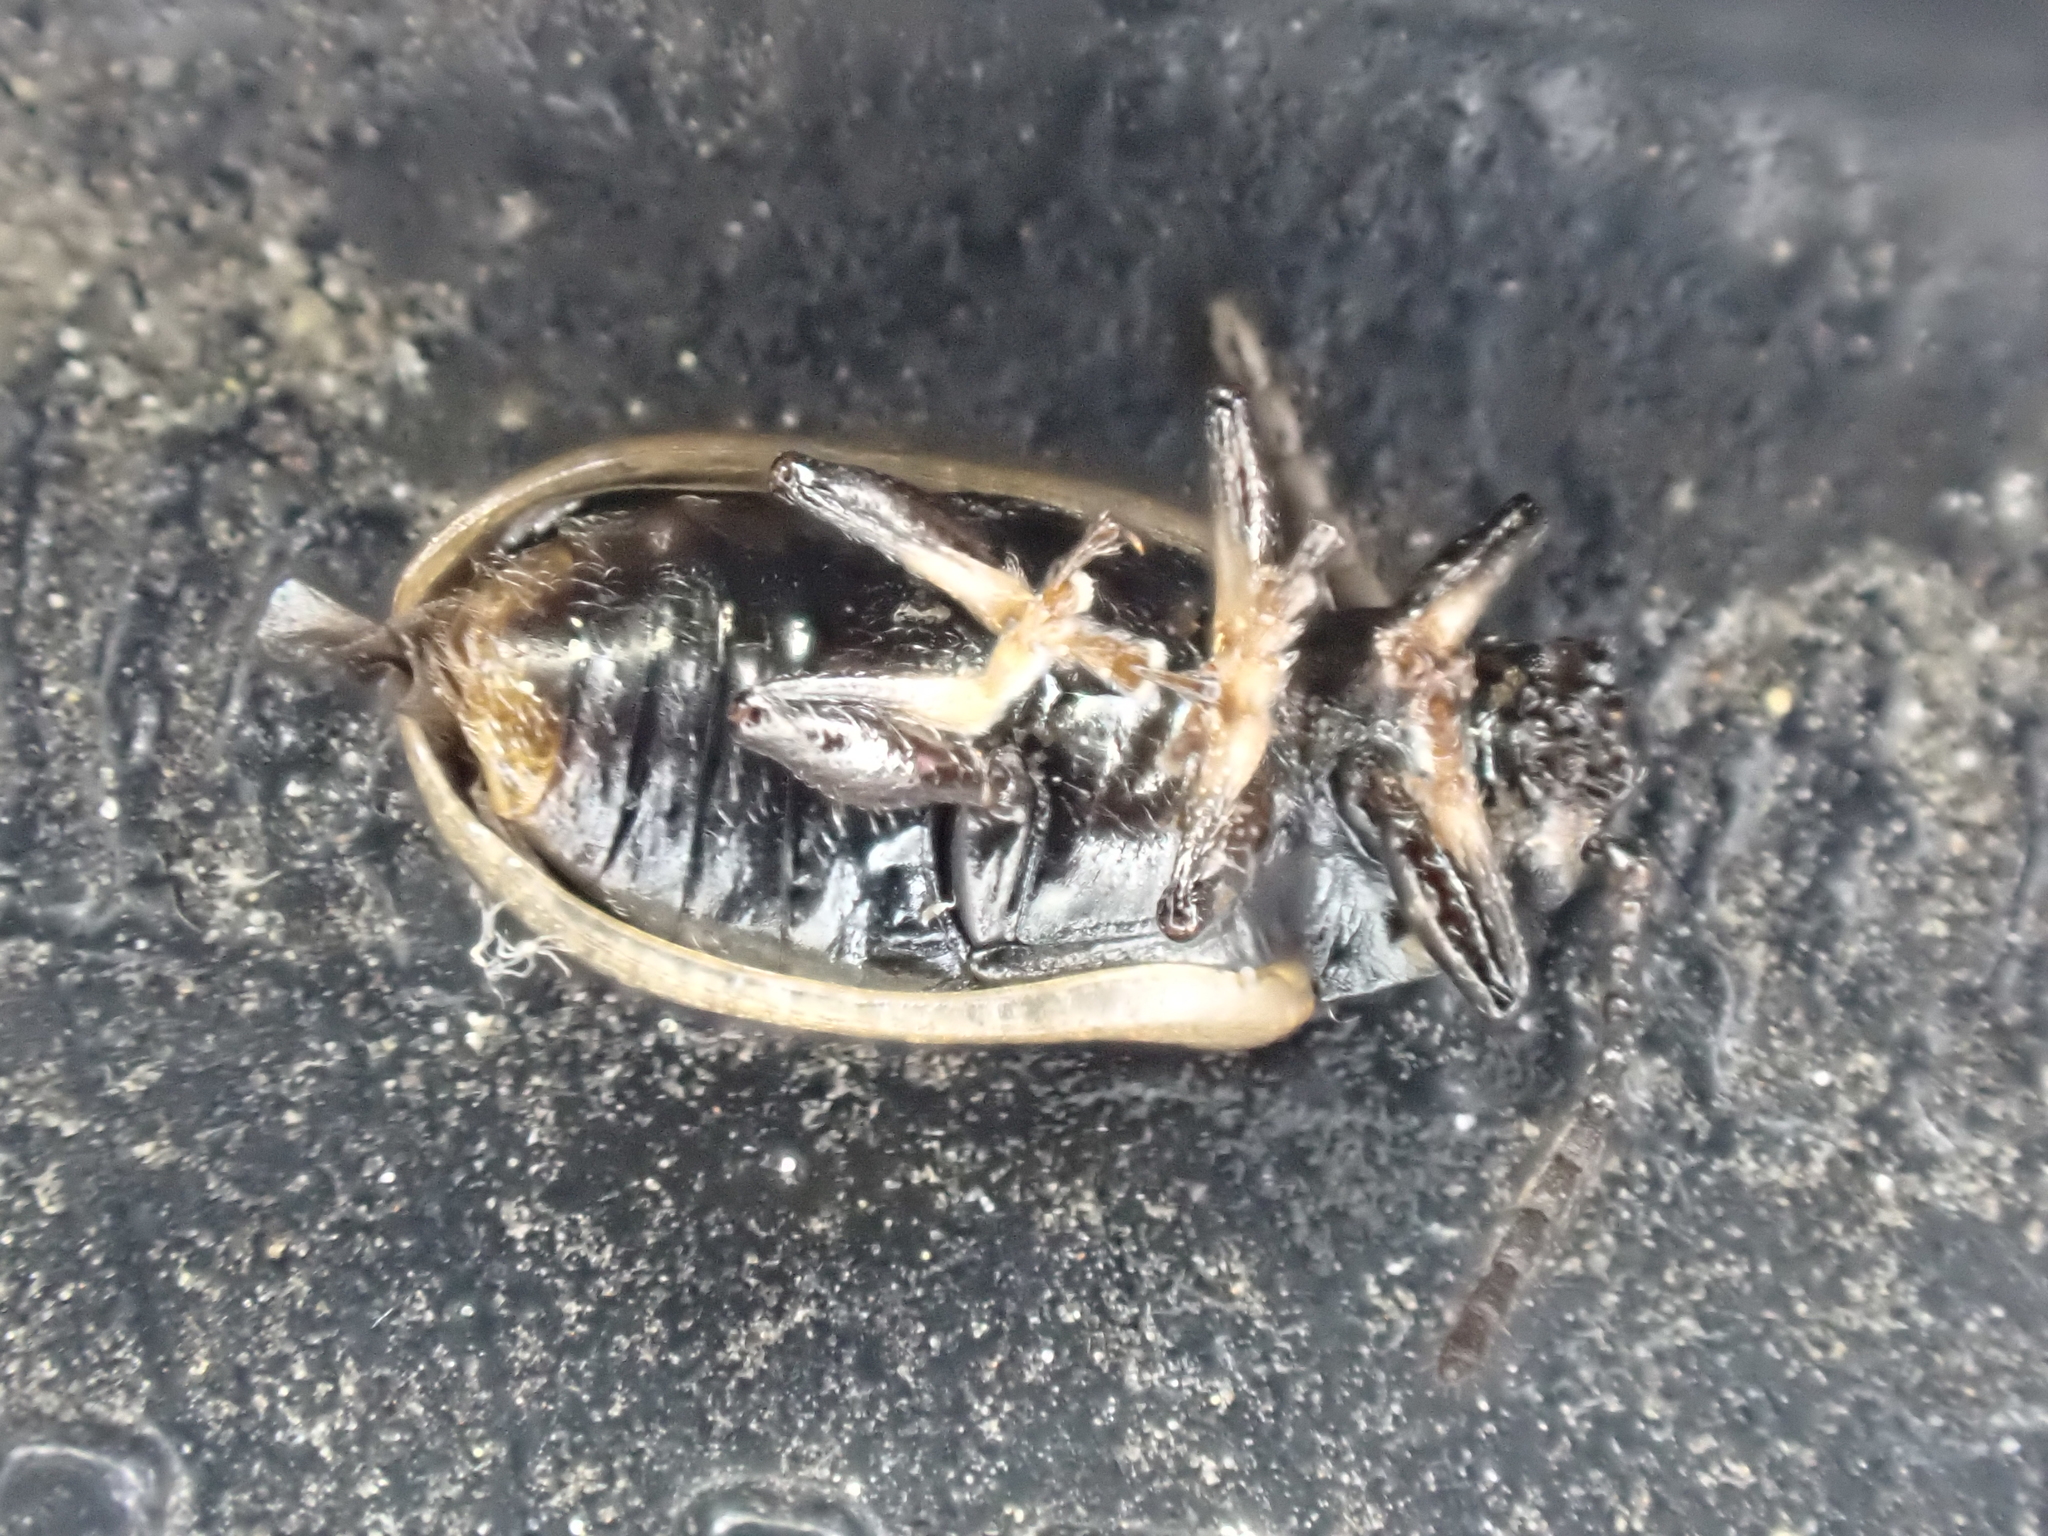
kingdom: Animalia
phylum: Arthropoda
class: Insecta
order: Coleoptera
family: Chrysomelidae
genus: Microtheca
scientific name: Microtheca ochroloma
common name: Leaf beetle
